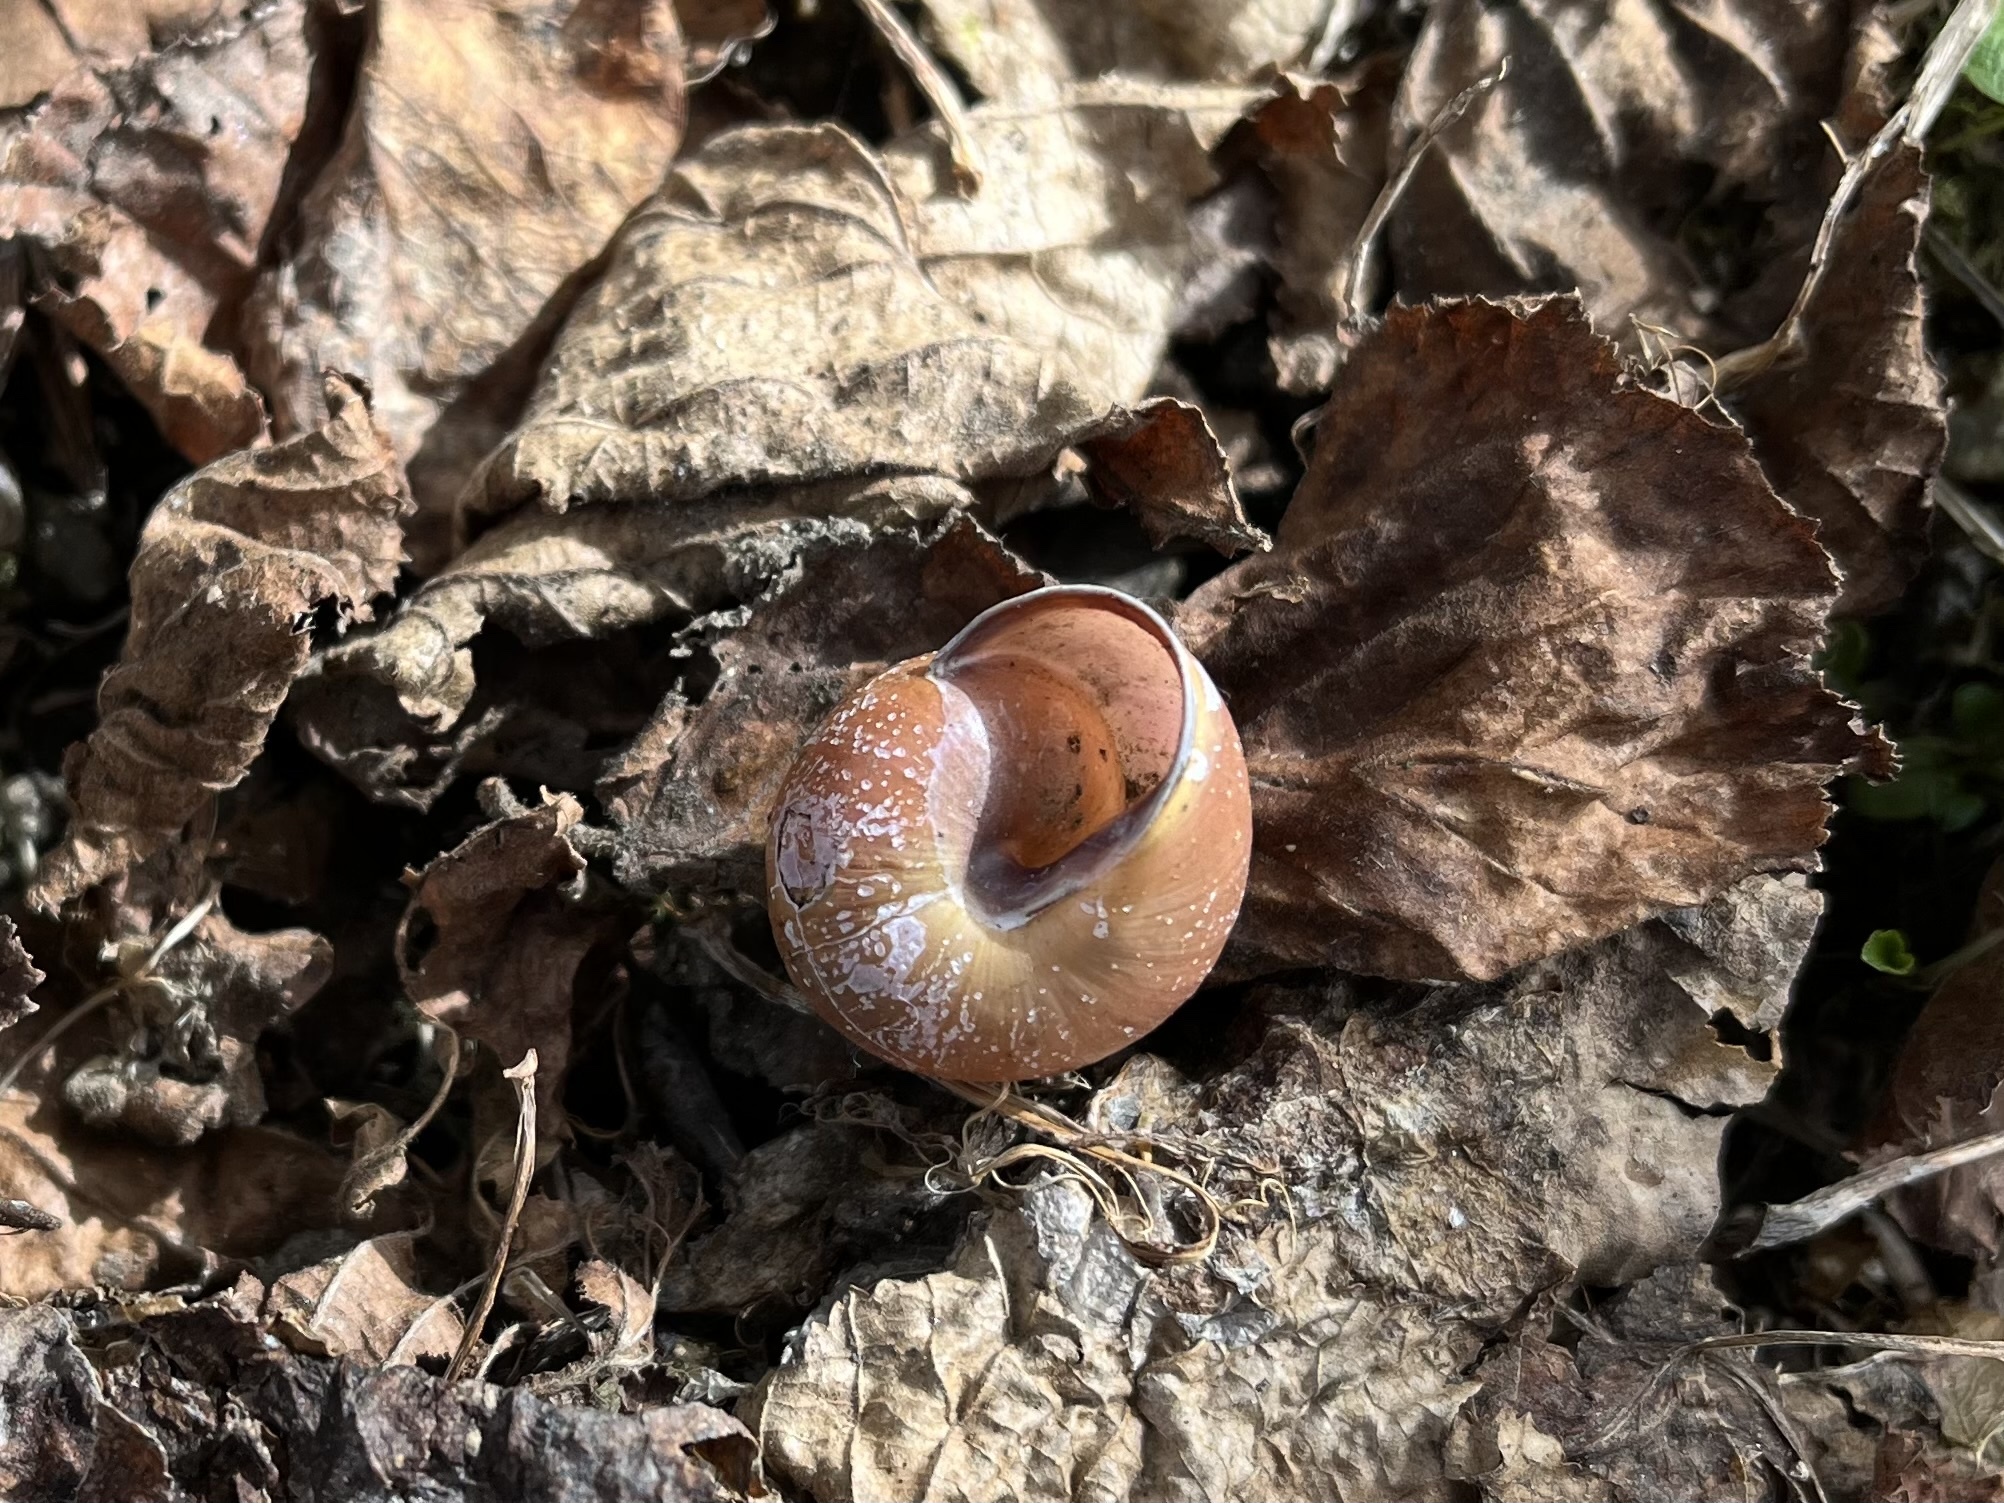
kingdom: Animalia
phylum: Mollusca
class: Gastropoda
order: Stylommatophora
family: Helicidae
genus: Cepaea
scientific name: Cepaea nemoralis
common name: Grovesnail
